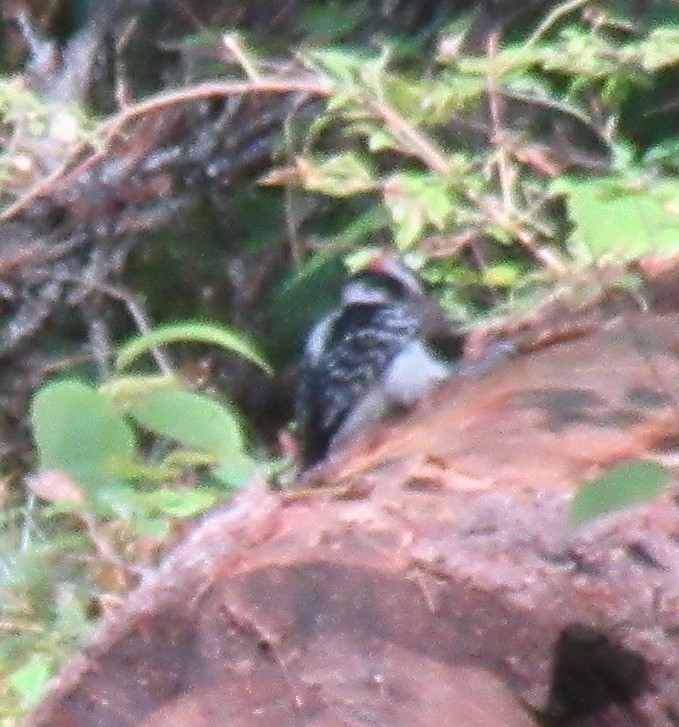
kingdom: Animalia
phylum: Chordata
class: Aves
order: Piciformes
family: Picidae
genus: Leuconotopicus
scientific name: Leuconotopicus villosus
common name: Hairy woodpecker
